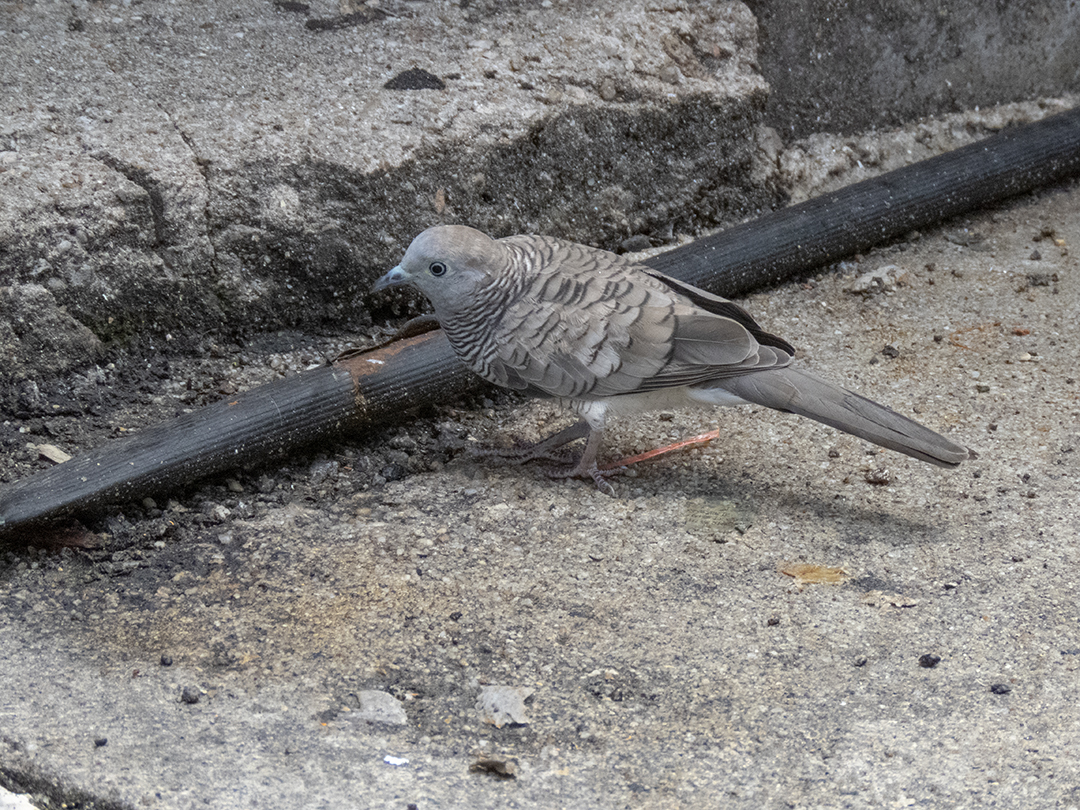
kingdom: Animalia
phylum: Chordata
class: Aves
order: Columbiformes
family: Columbidae
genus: Geopelia
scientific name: Geopelia striata
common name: Zebra dove
